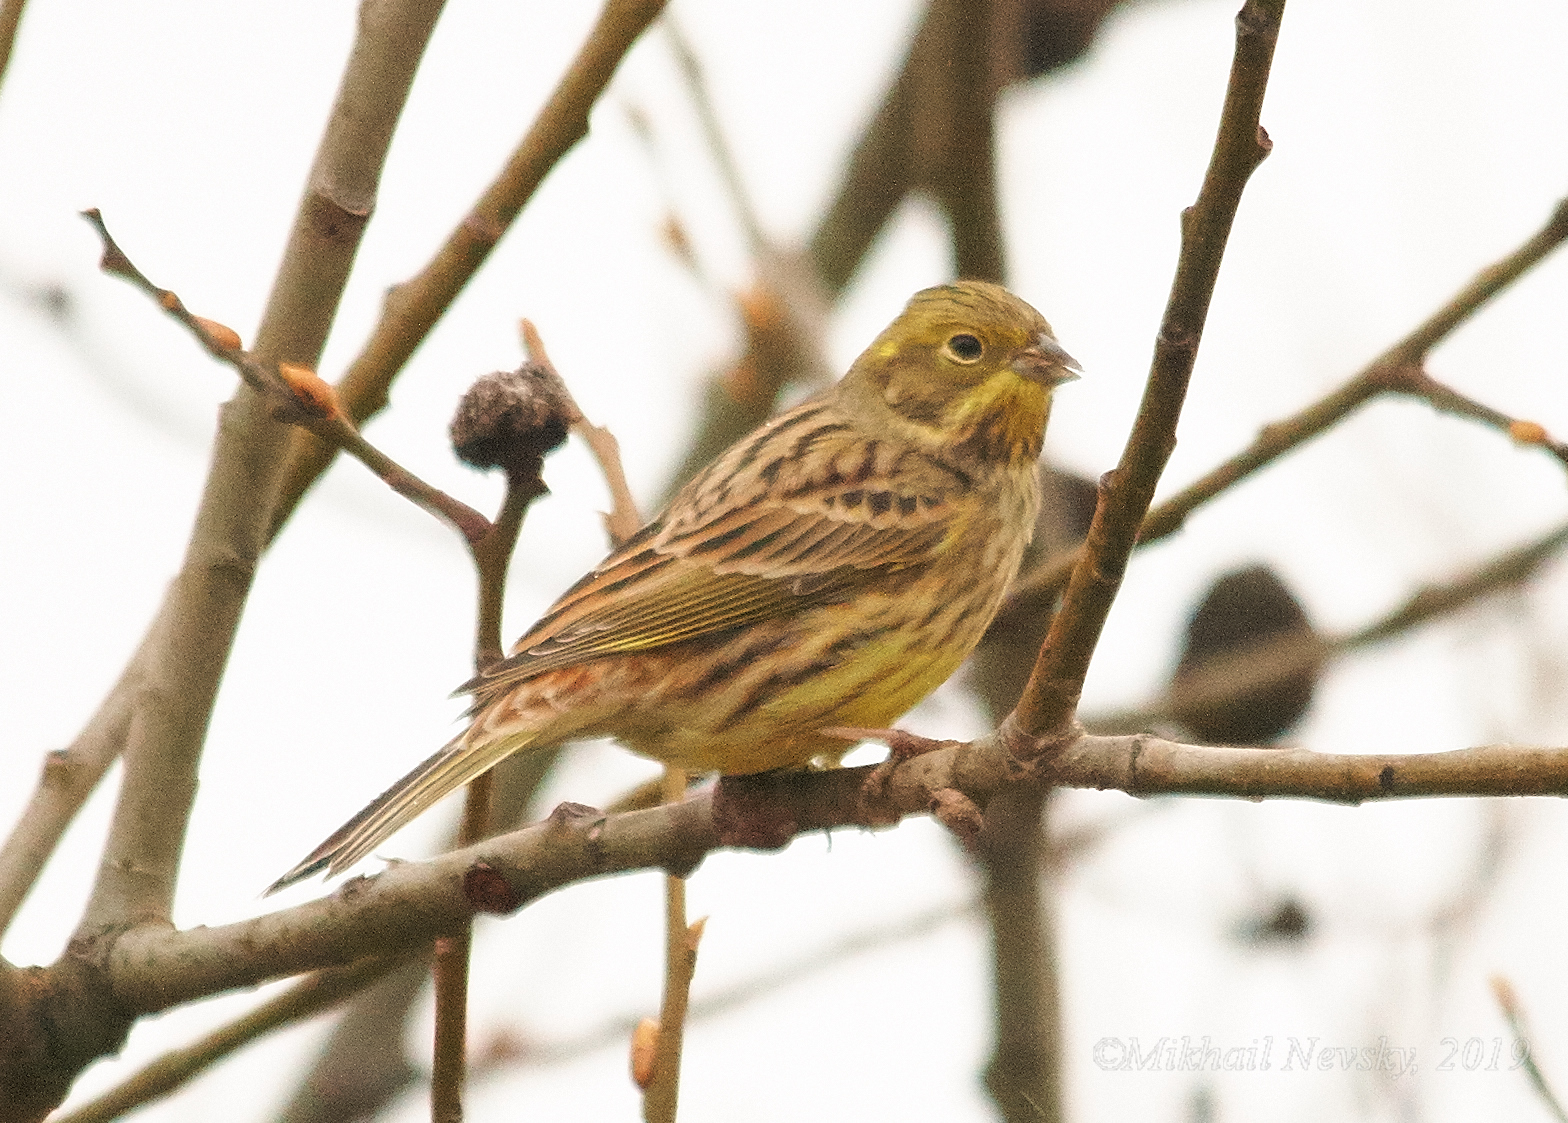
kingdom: Animalia
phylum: Chordata
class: Aves
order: Passeriformes
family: Emberizidae
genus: Emberiza
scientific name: Emberiza citrinella
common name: Yellowhammer
